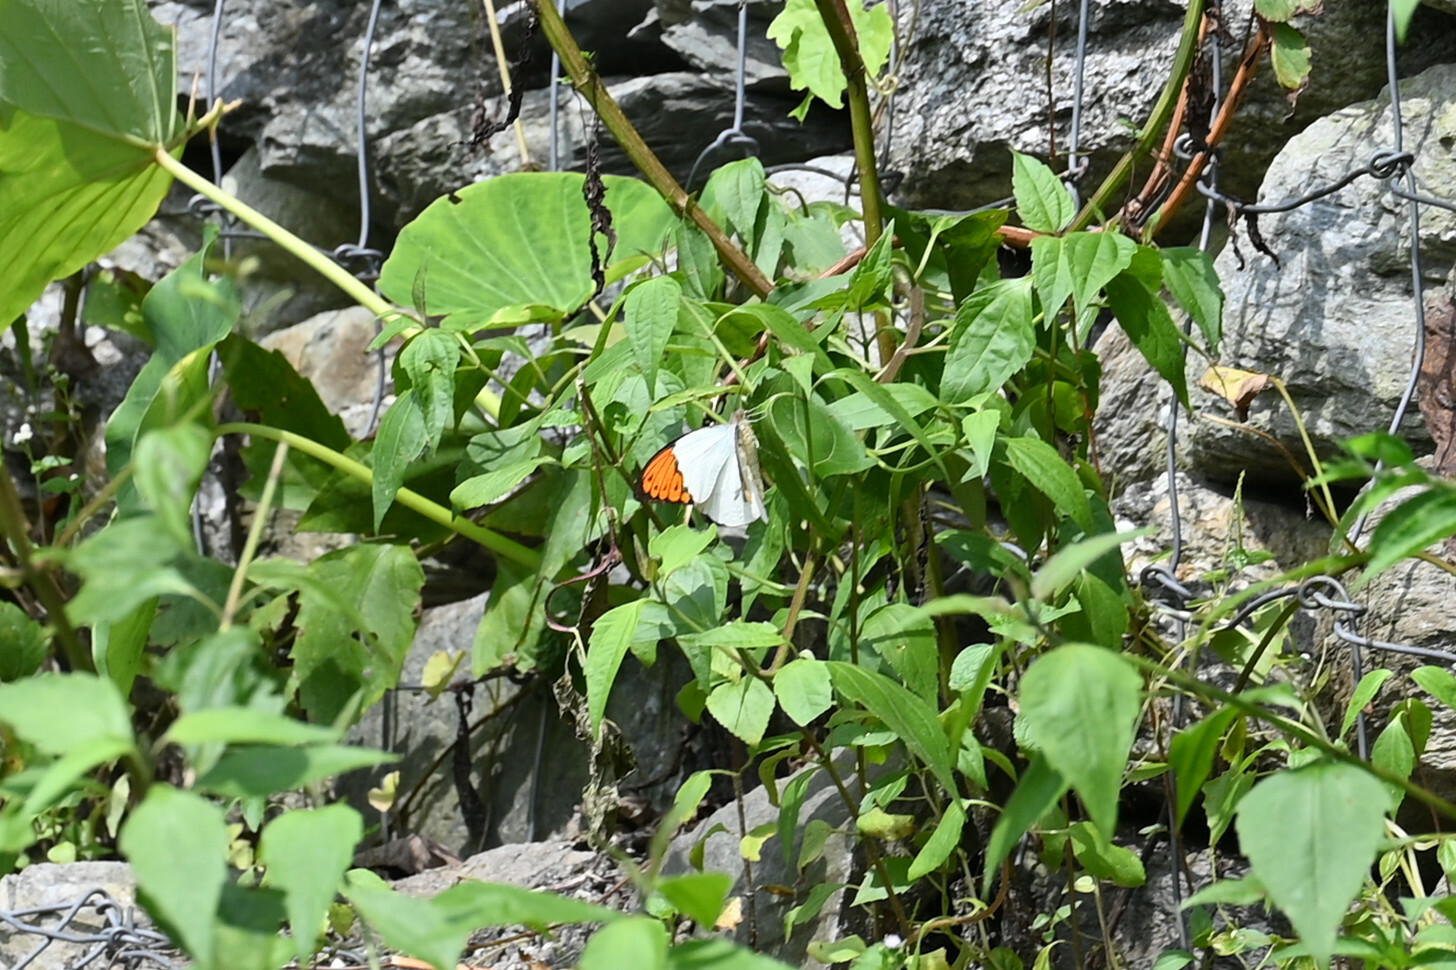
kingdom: Animalia
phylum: Arthropoda
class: Insecta
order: Lepidoptera
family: Pieridae
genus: Hebomoia
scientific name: Hebomoia glaucippe
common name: Great orange tip
